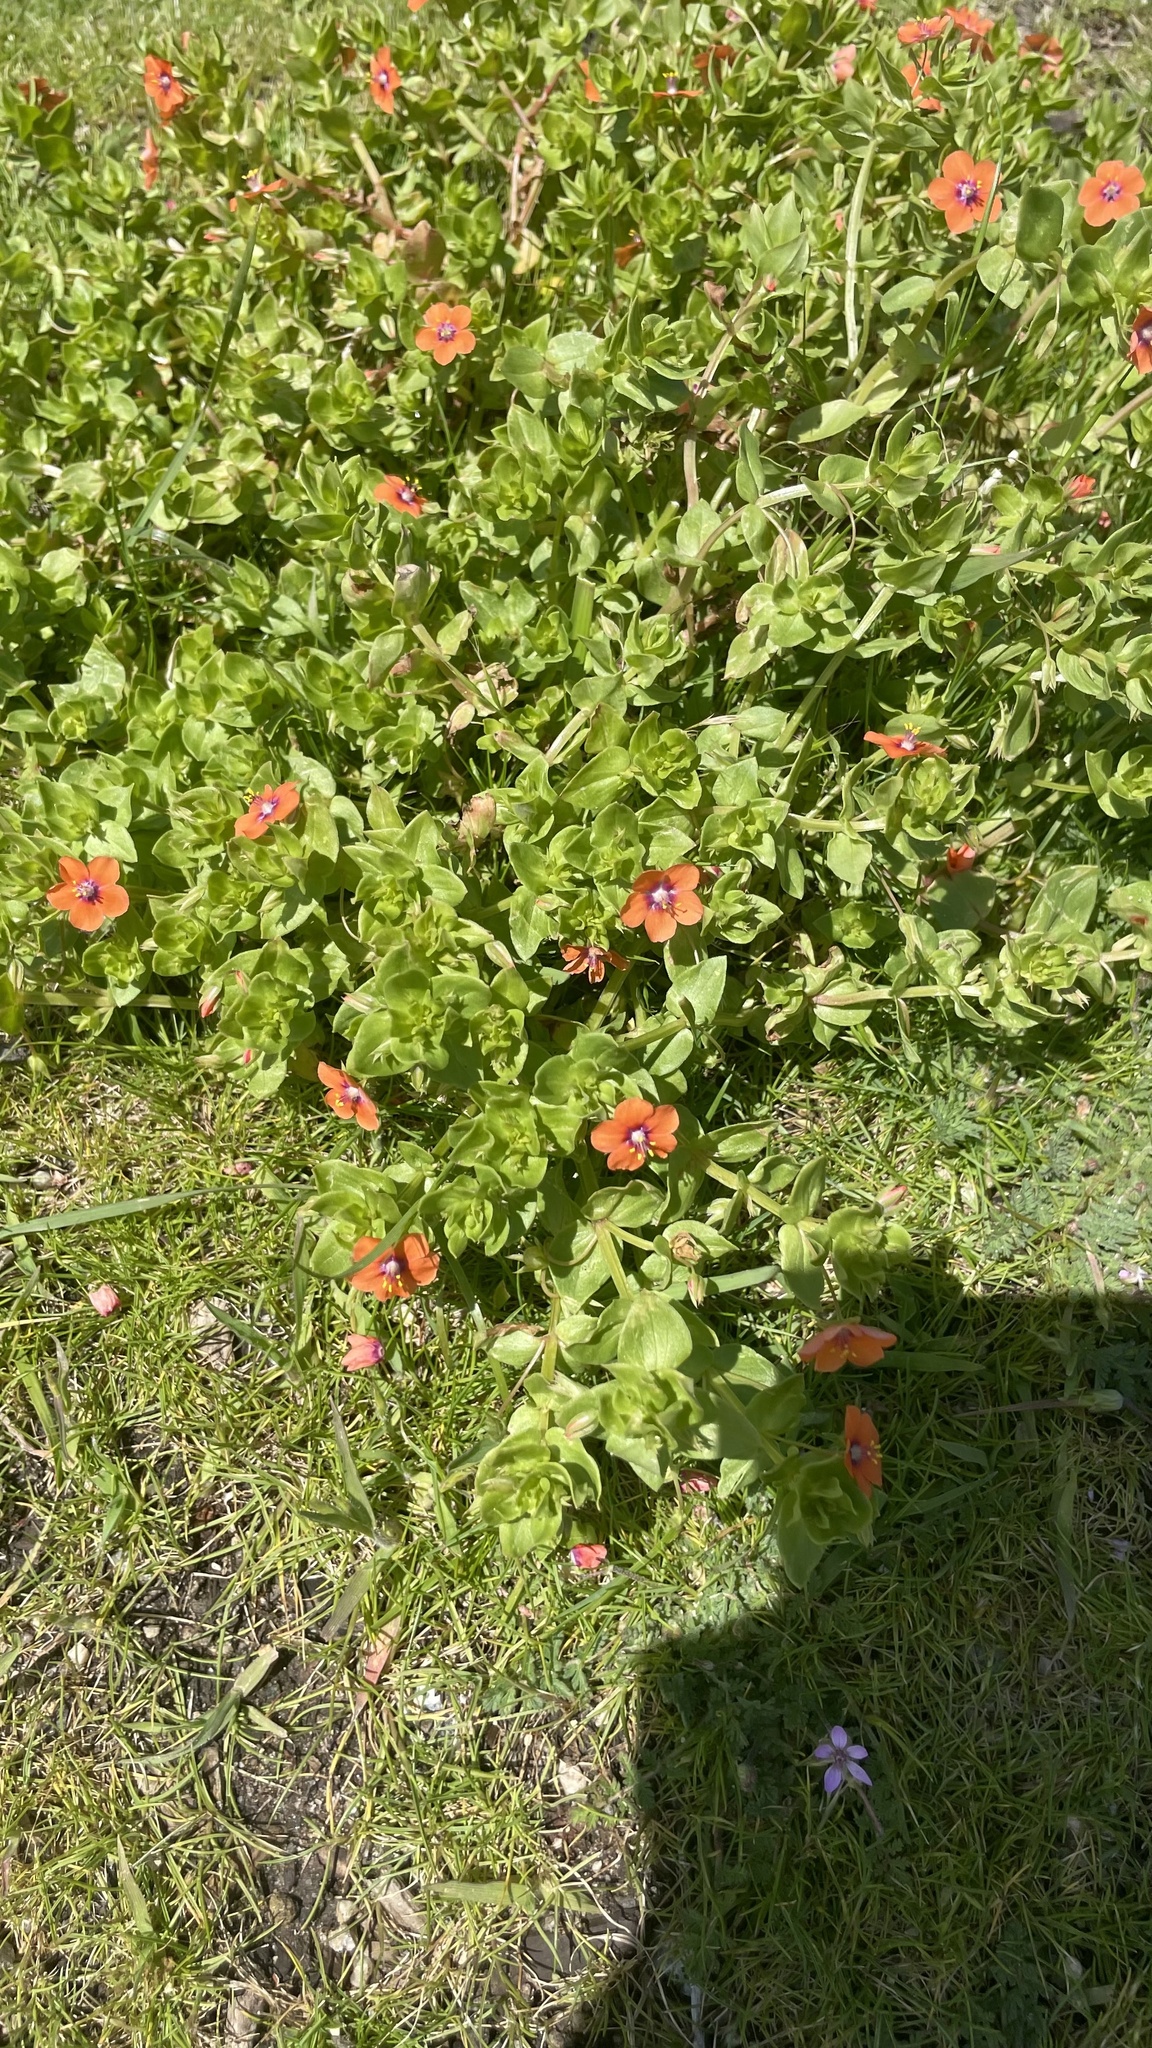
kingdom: Plantae
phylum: Tracheophyta
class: Magnoliopsida
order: Ericales
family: Primulaceae
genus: Lysimachia
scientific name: Lysimachia arvensis
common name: Scarlet pimpernel
